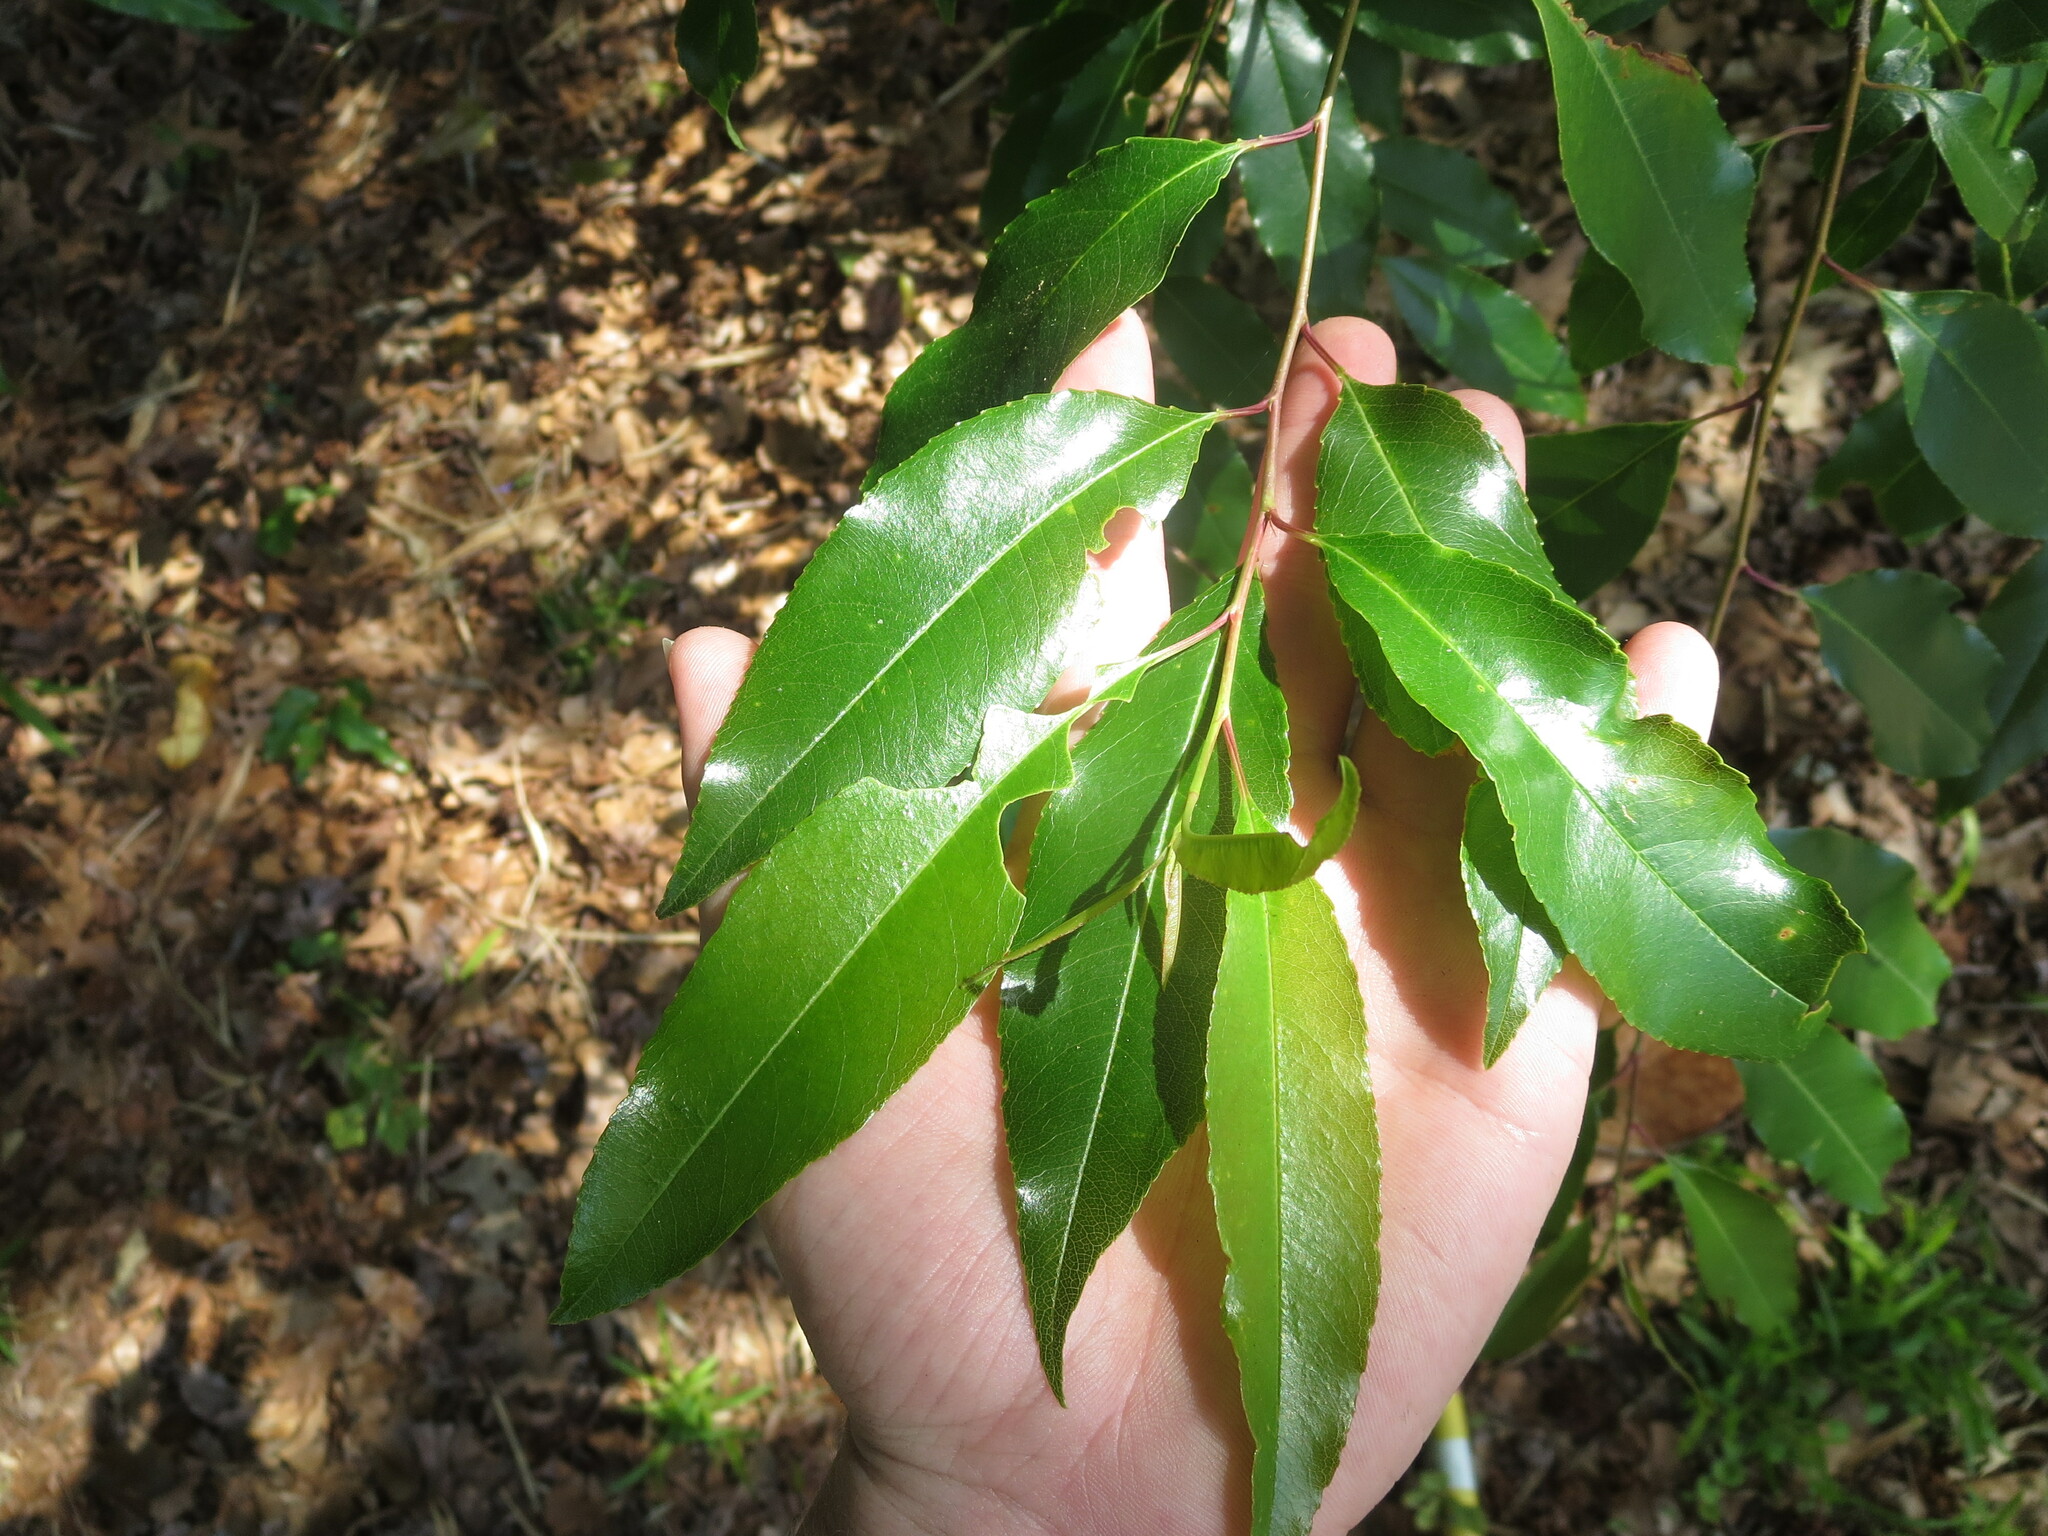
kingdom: Plantae
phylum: Tracheophyta
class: Magnoliopsida
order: Rosales
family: Rosaceae
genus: Prunus
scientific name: Prunus serotina
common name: Black cherry
